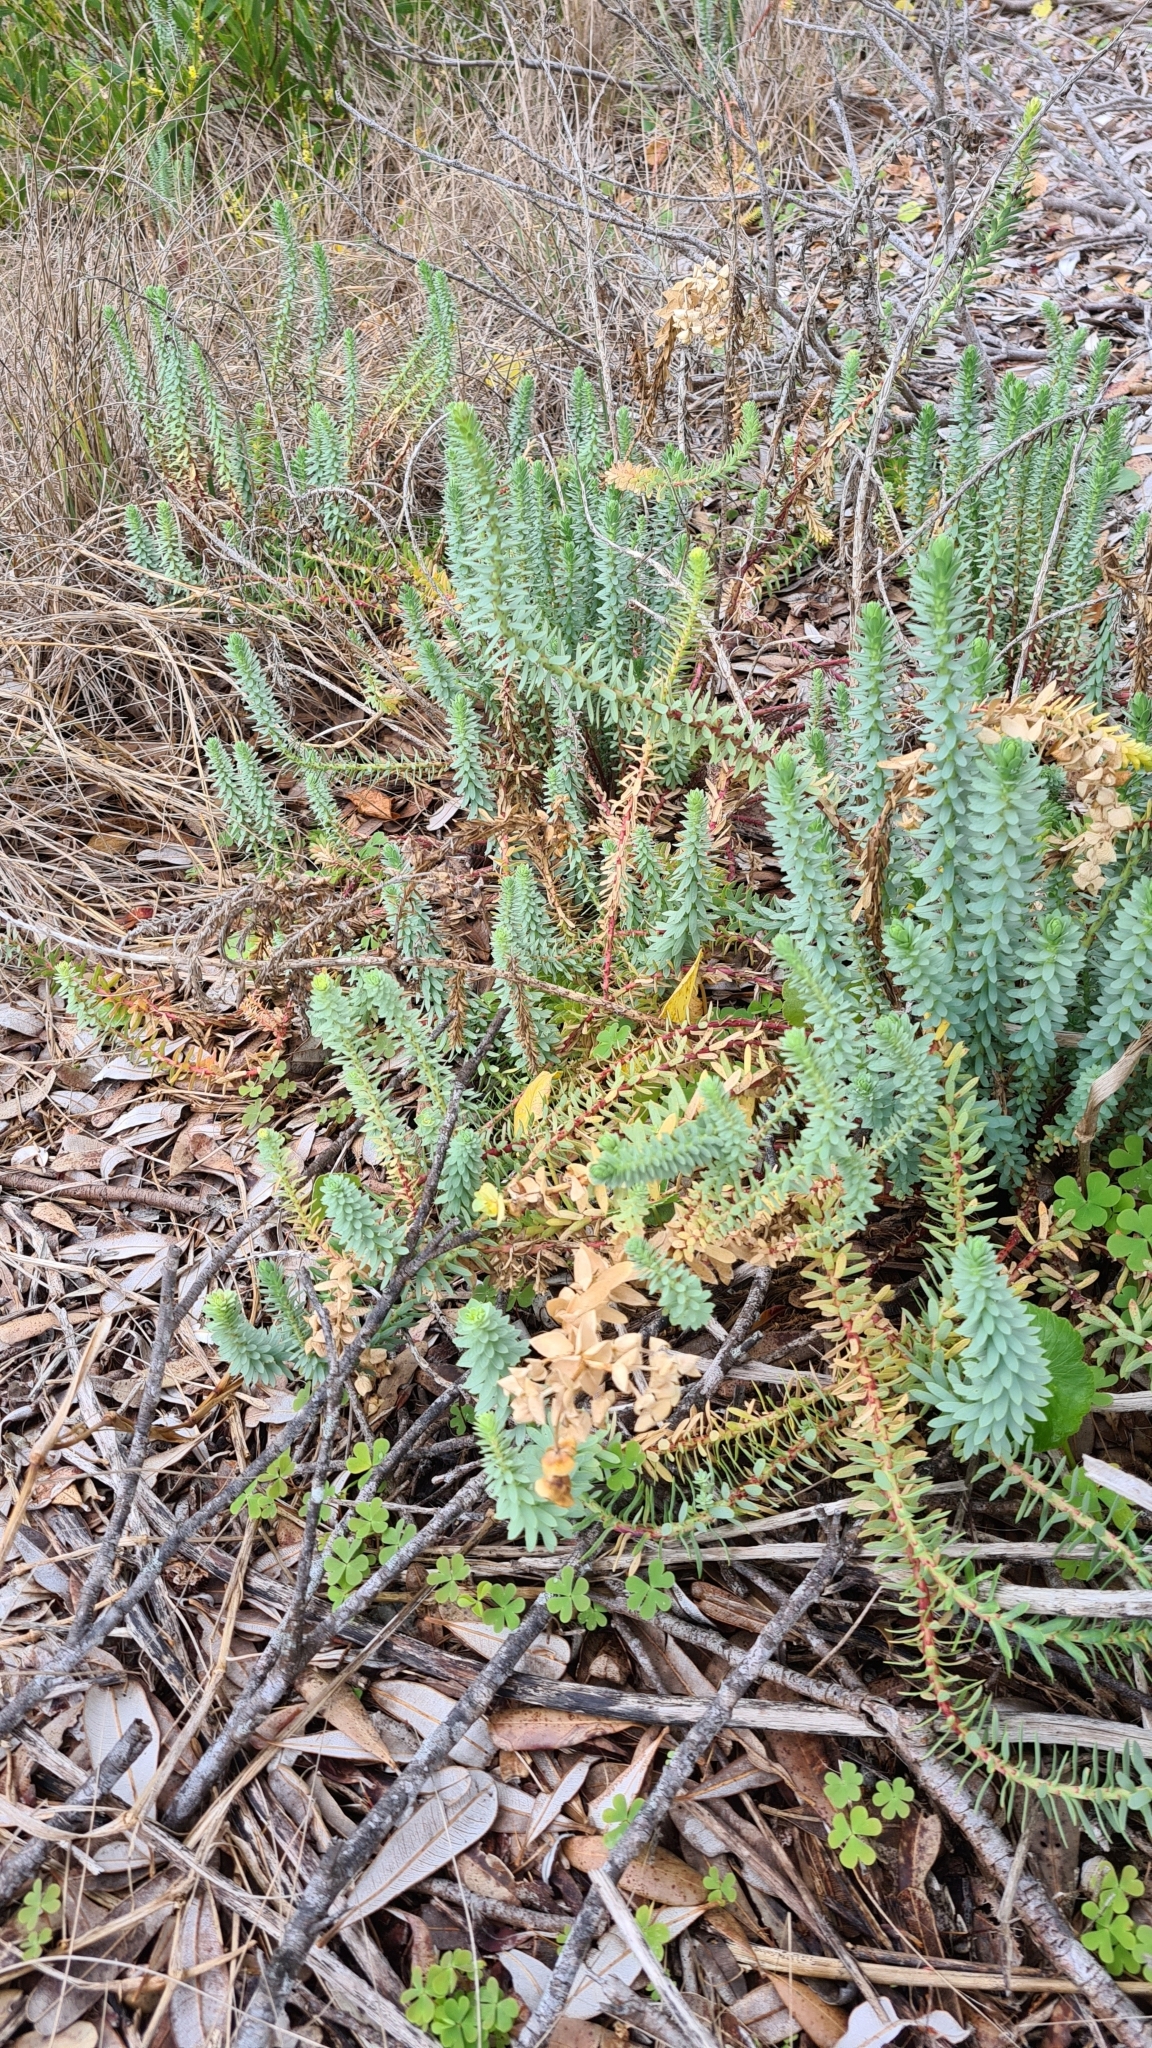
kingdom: Plantae
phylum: Tracheophyta
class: Magnoliopsida
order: Malpighiales
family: Euphorbiaceae
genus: Euphorbia
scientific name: Euphorbia paralias
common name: Sea spurge
